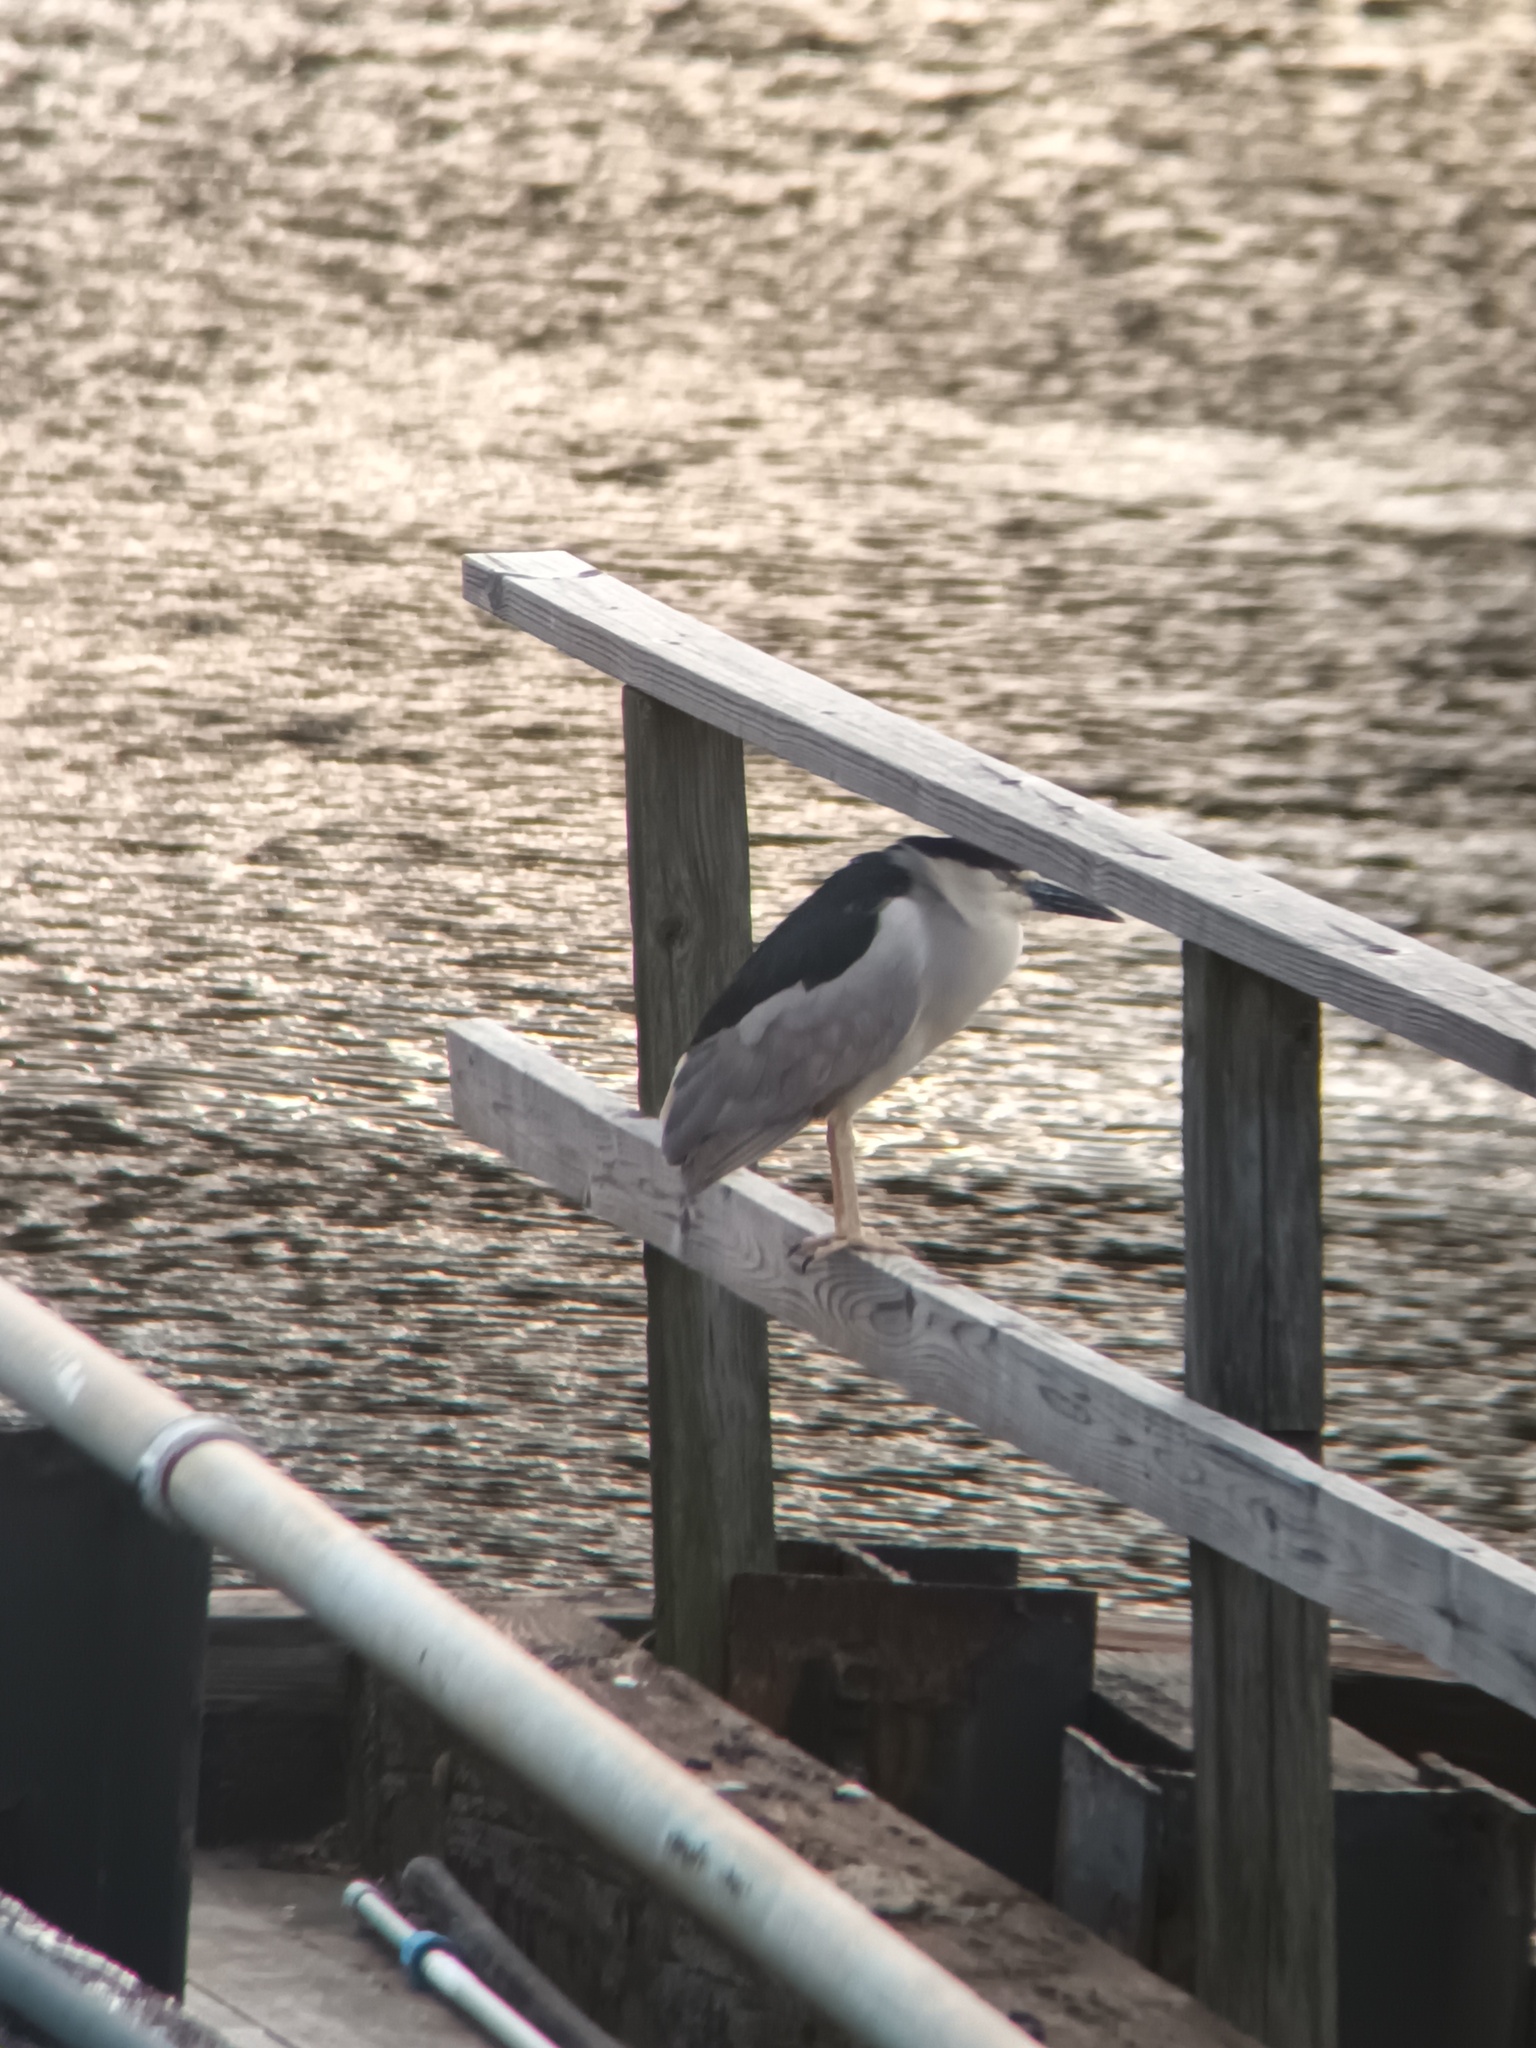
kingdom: Animalia
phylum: Chordata
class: Aves
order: Pelecaniformes
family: Ardeidae
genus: Nycticorax
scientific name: Nycticorax nycticorax
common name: Black-crowned night heron
